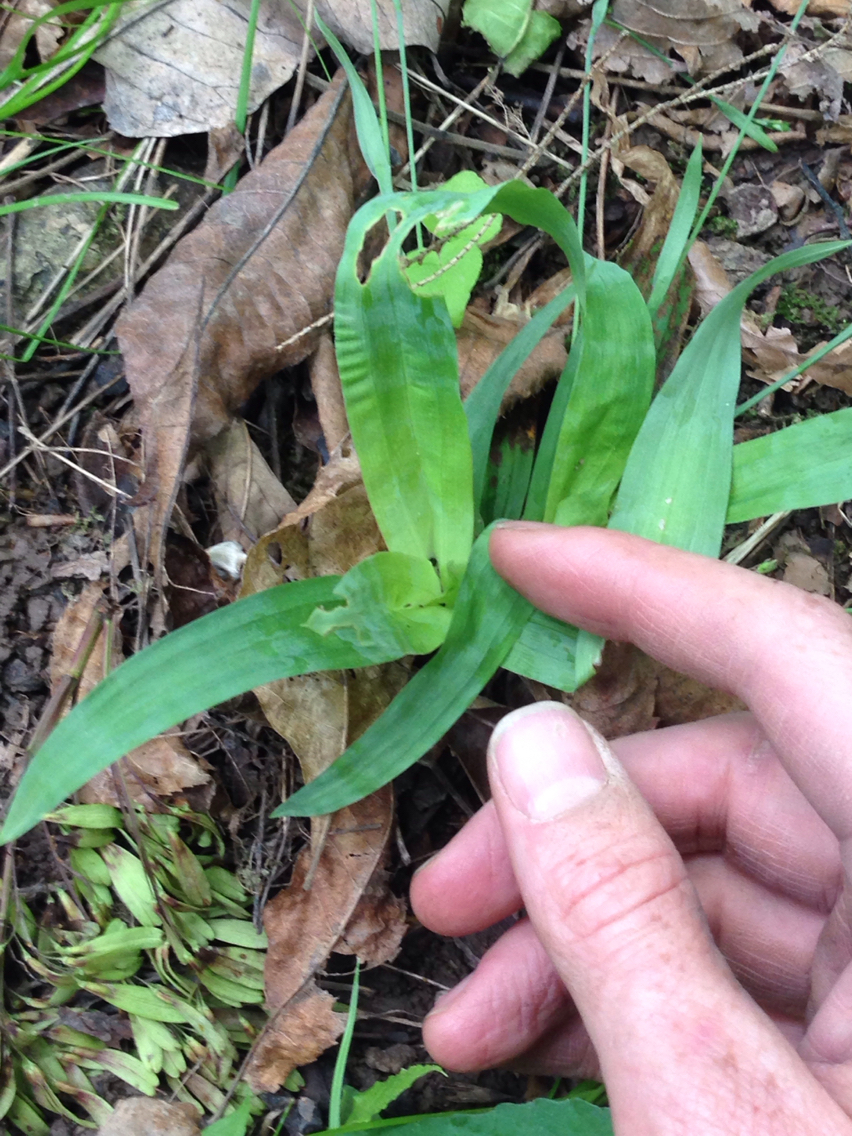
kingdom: Plantae
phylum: Tracheophyta
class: Liliopsida
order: Poales
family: Cyperaceae
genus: Carex
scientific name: Carex platyphylla
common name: Broad-leaved sedge
